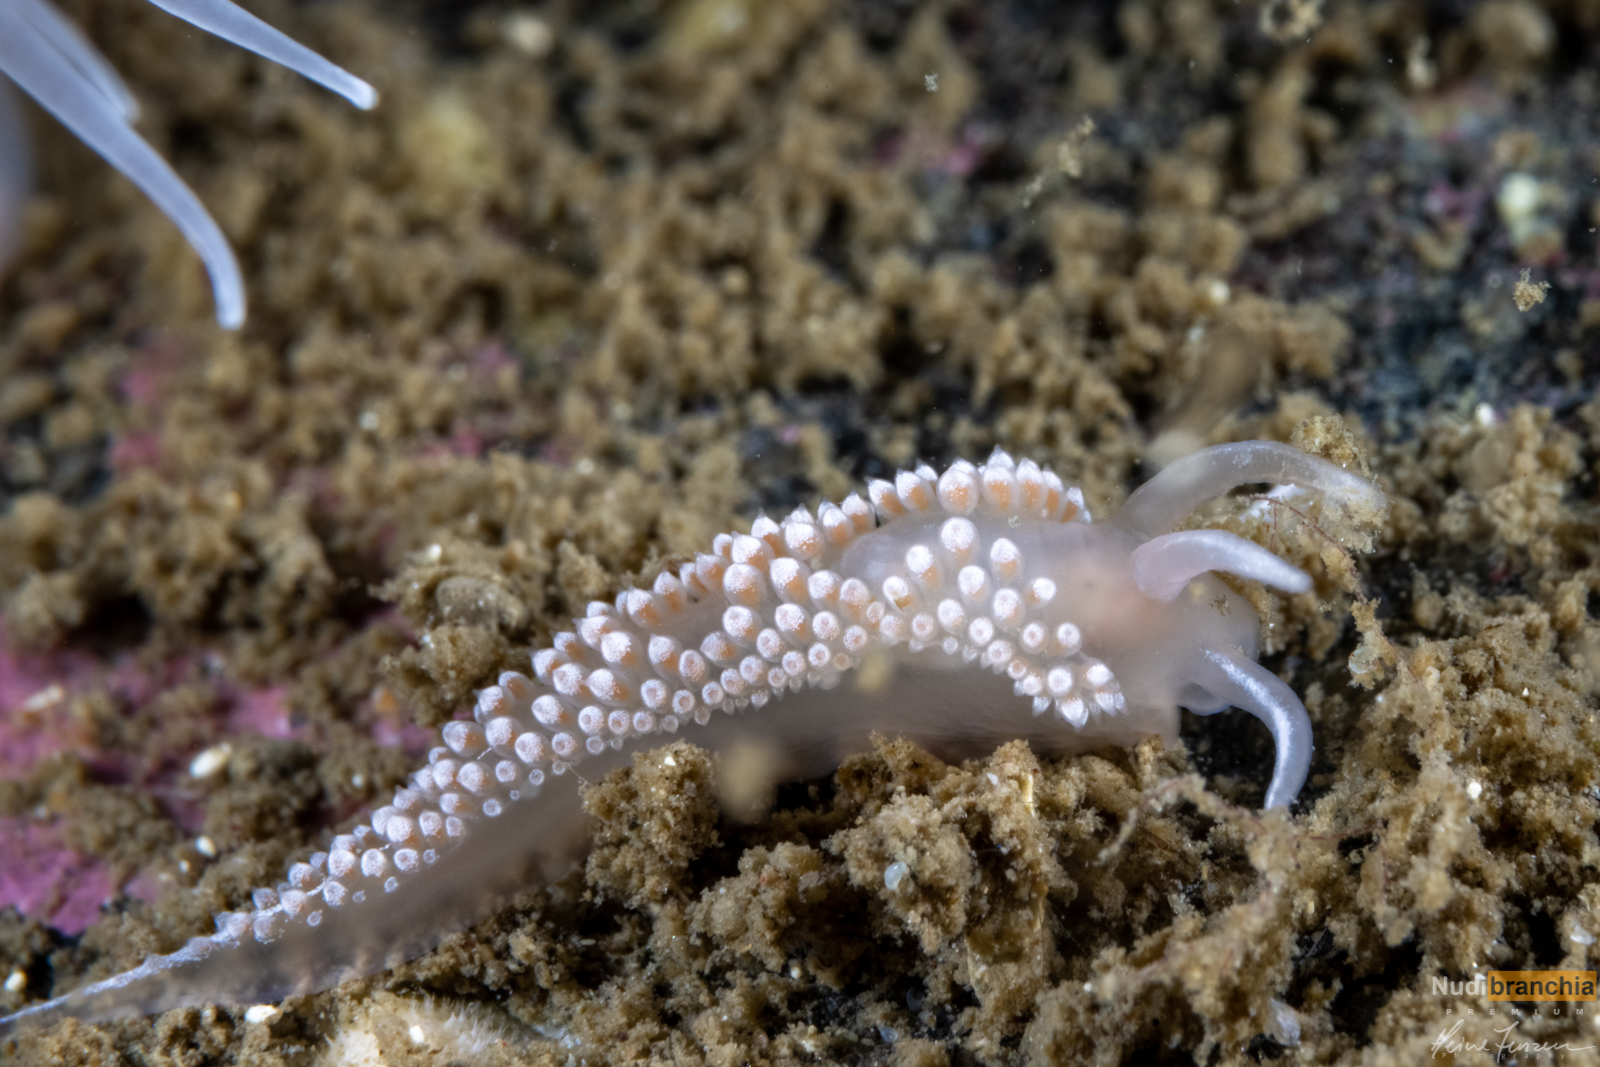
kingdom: Animalia
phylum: Mollusca
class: Gastropoda
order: Nudibranchia
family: Coryphellidae
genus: Coryphella
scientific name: Coryphella verrucosa
